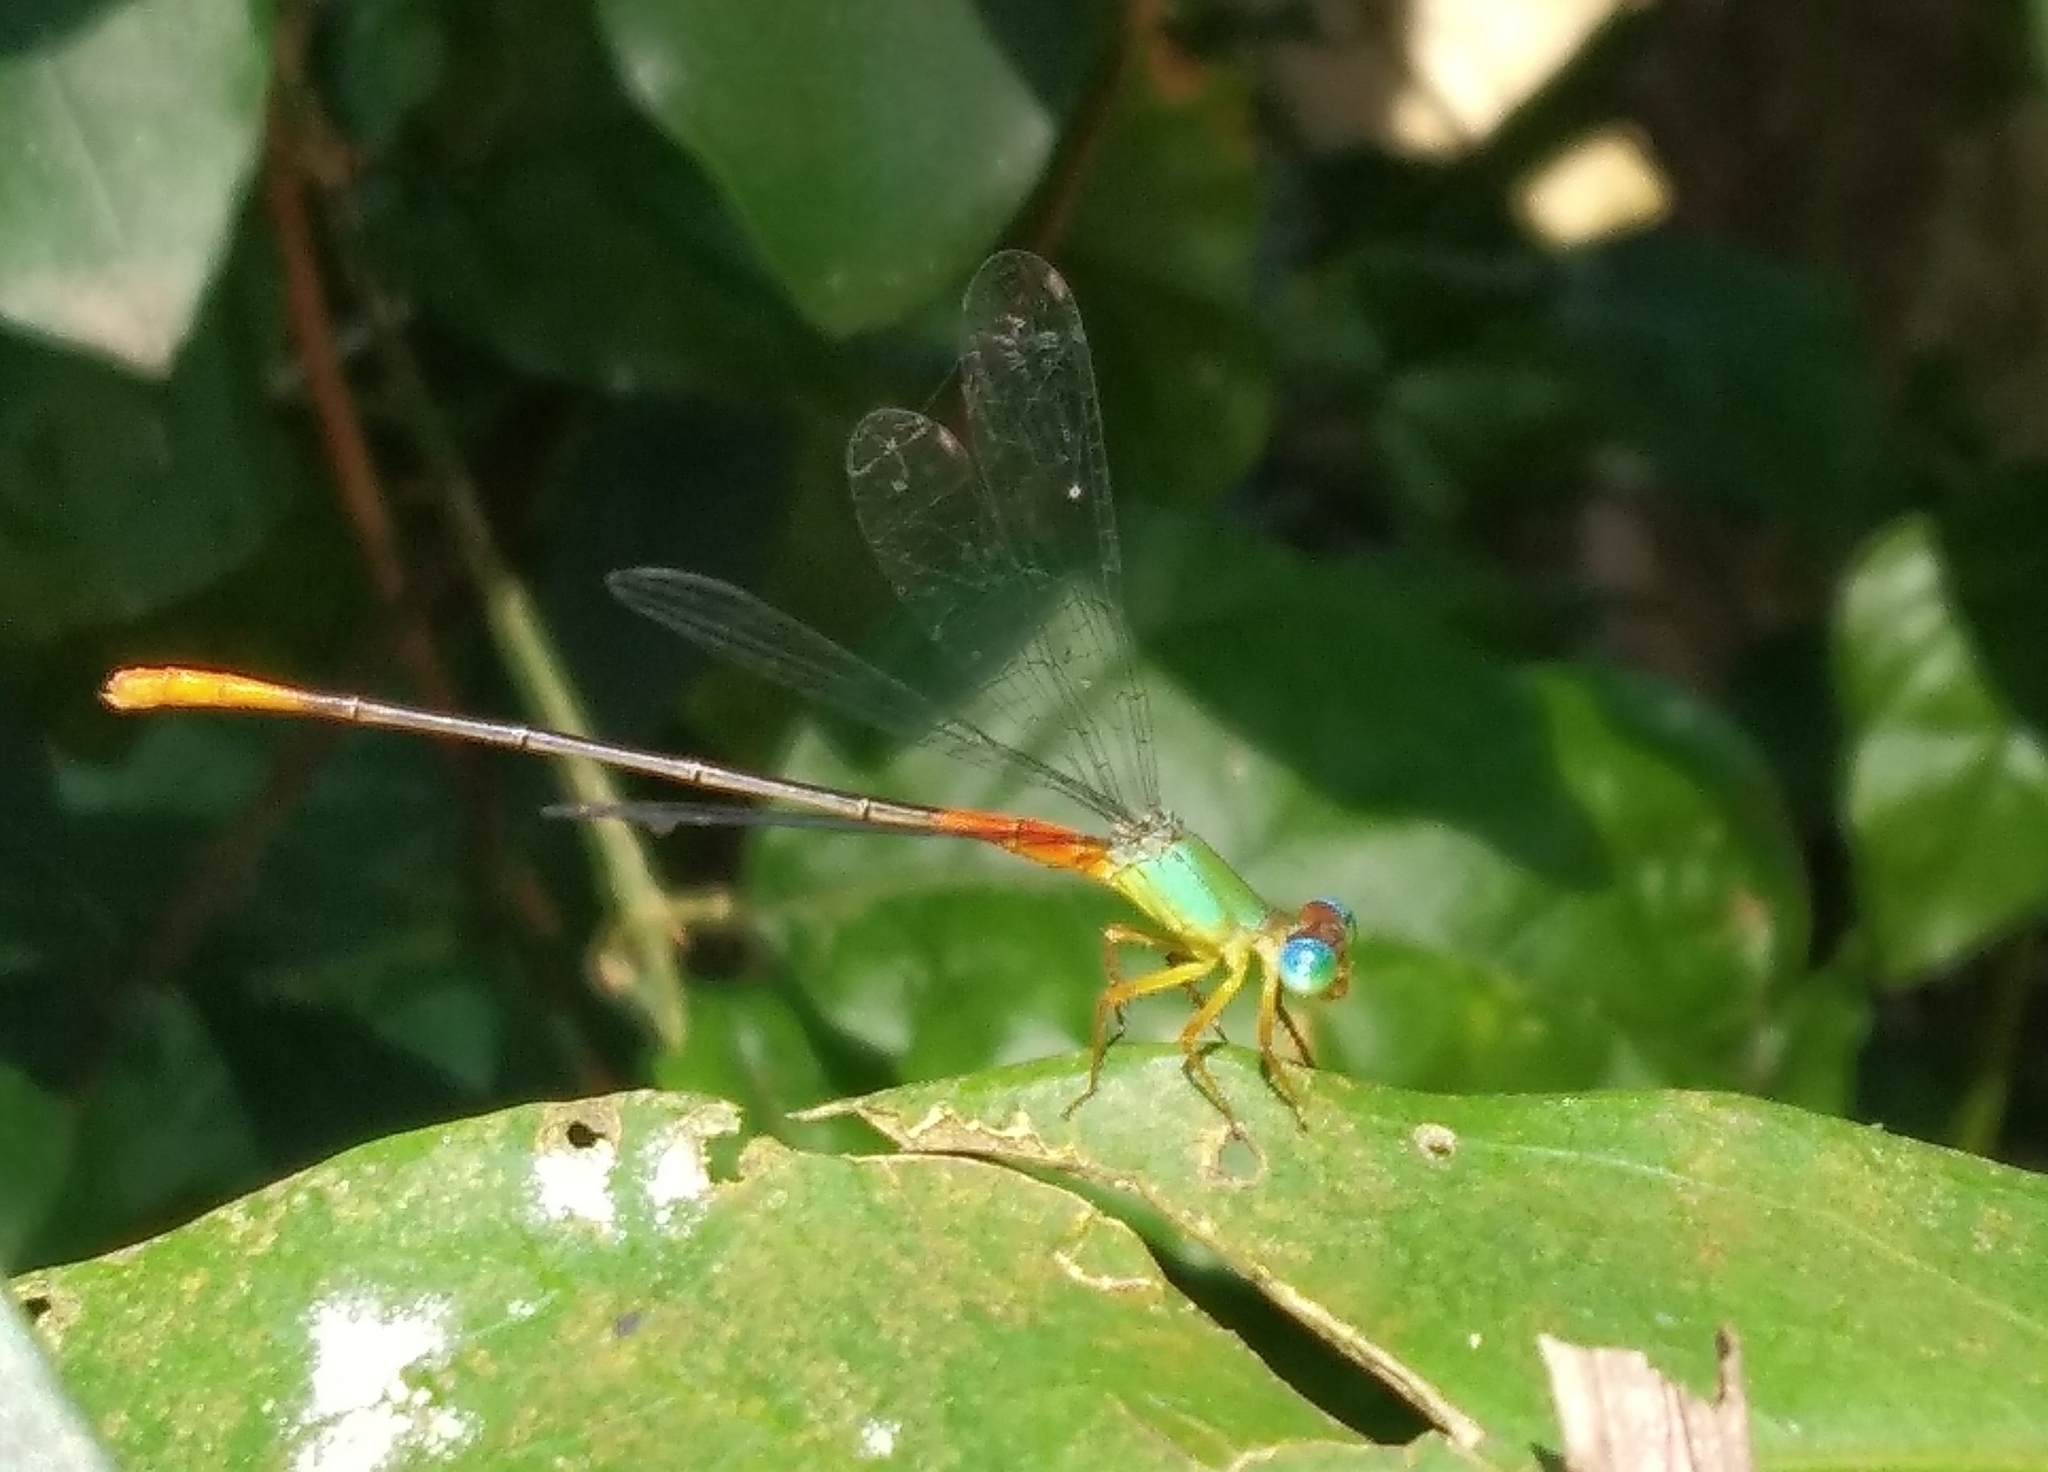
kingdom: Animalia
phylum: Arthropoda
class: Insecta
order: Odonata
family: Coenagrionidae
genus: Ceriagrion
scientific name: Ceriagrion cerinorubellum
